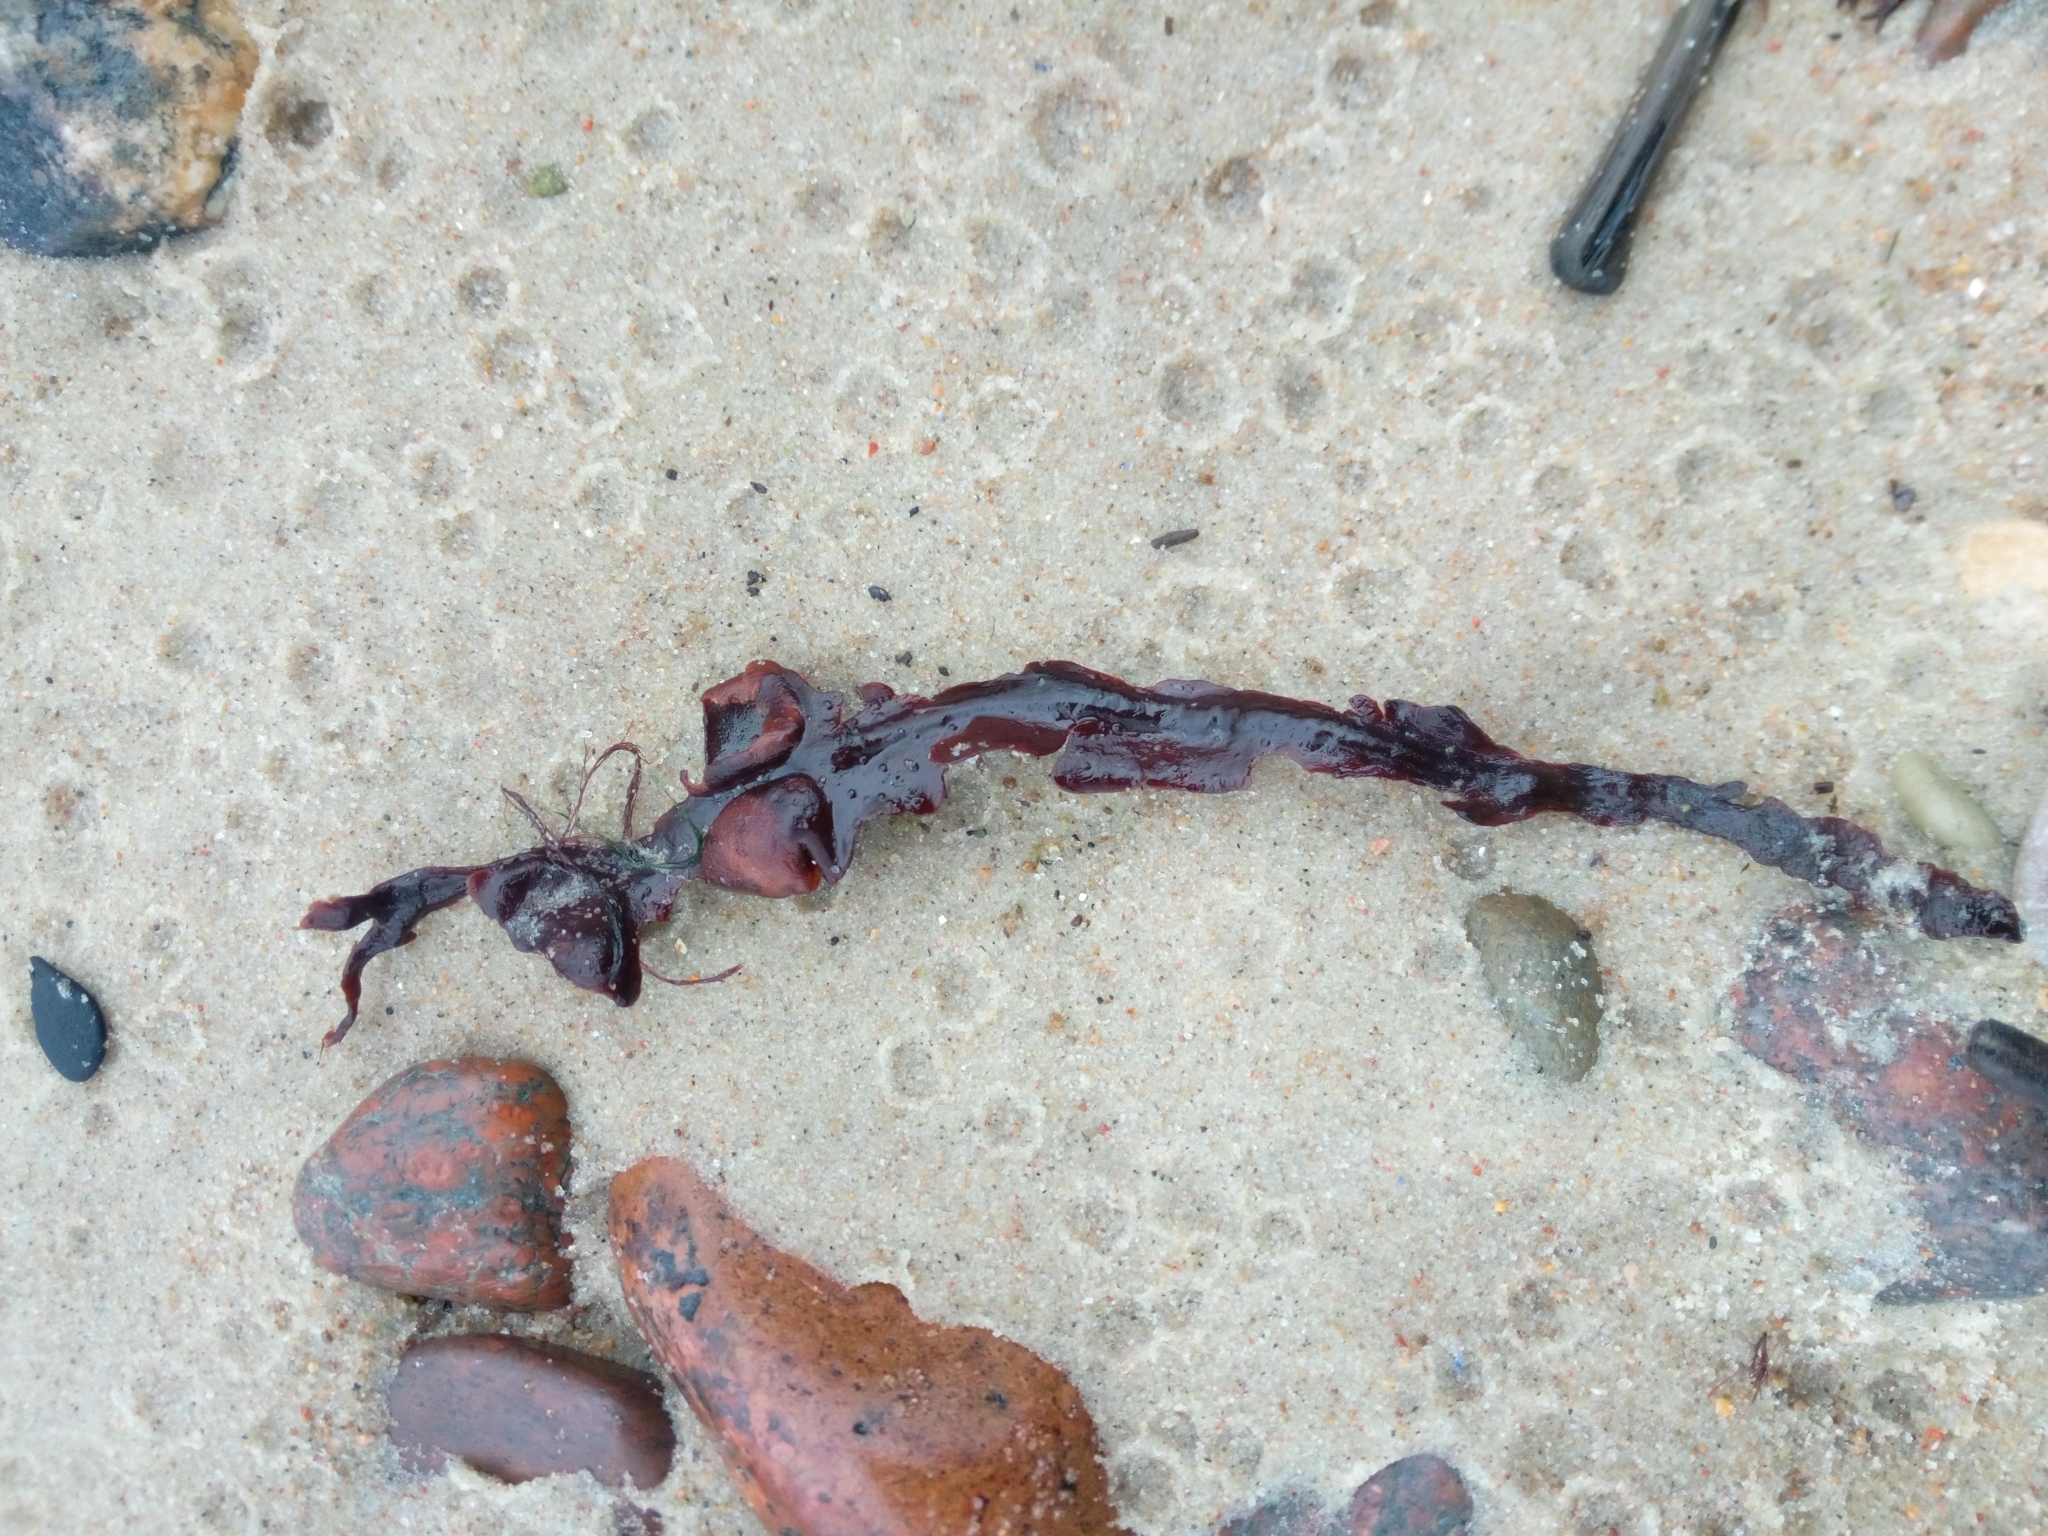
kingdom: Chromista
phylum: Ochrophyta
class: Phaeophyceae
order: Fucales
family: Fucaceae
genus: Fucus
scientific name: Fucus vesiculosus
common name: Bladder wrack
